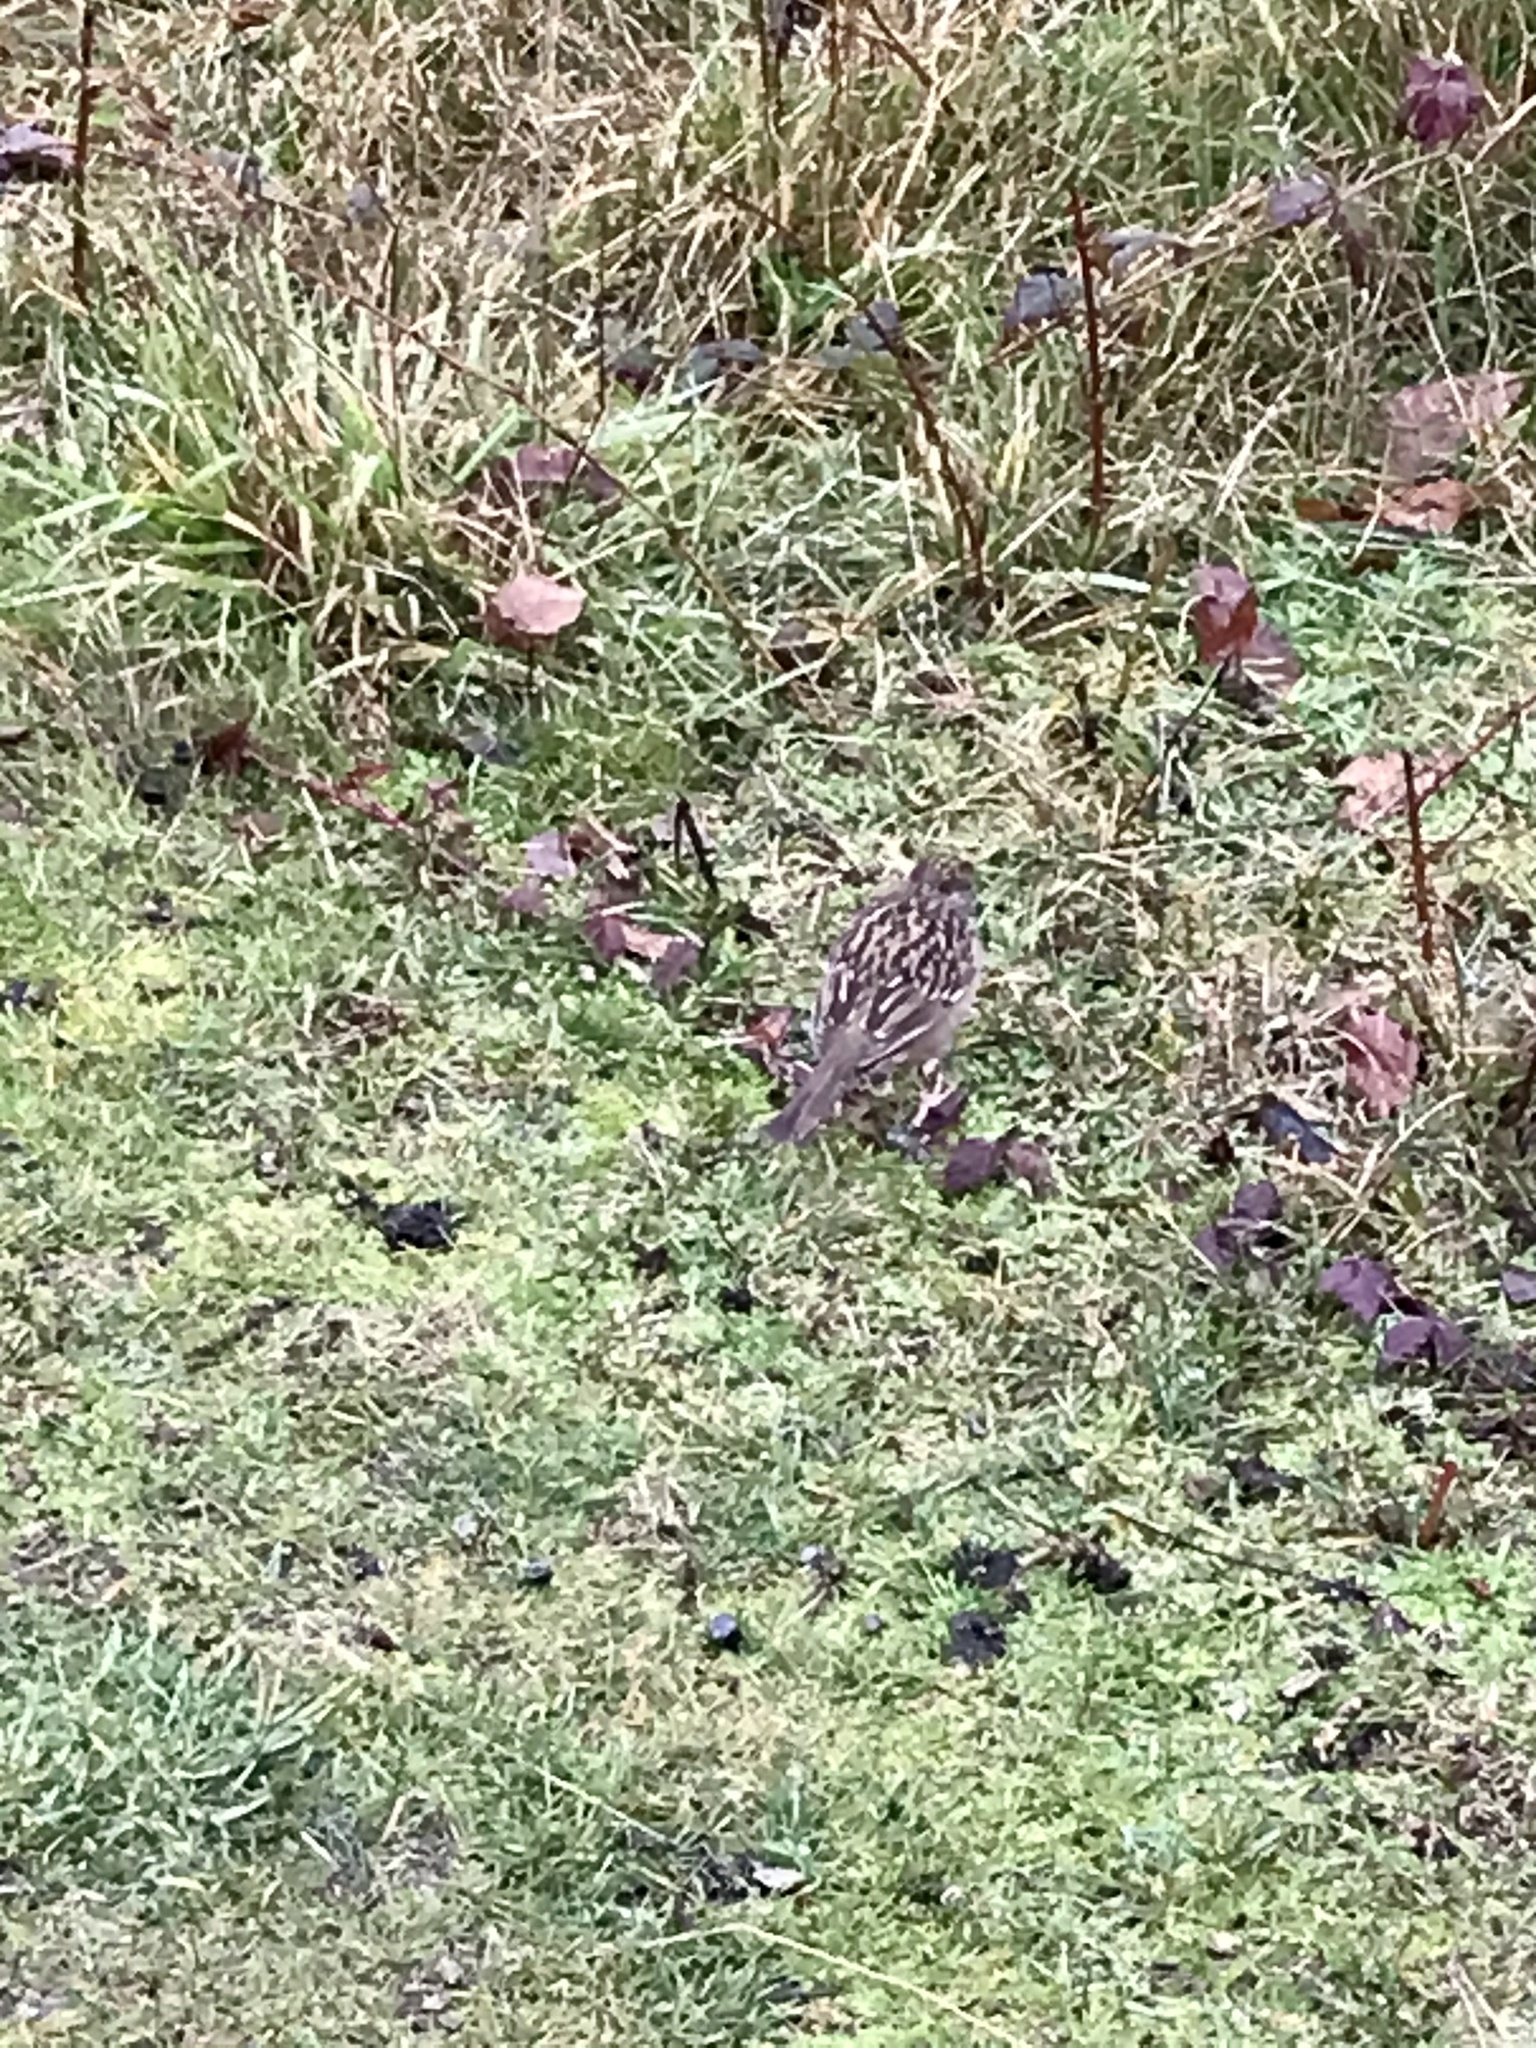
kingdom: Animalia
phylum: Chordata
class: Aves
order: Passeriformes
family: Passerellidae
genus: Zonotrichia
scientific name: Zonotrichia atricapilla
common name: Golden-crowned sparrow
